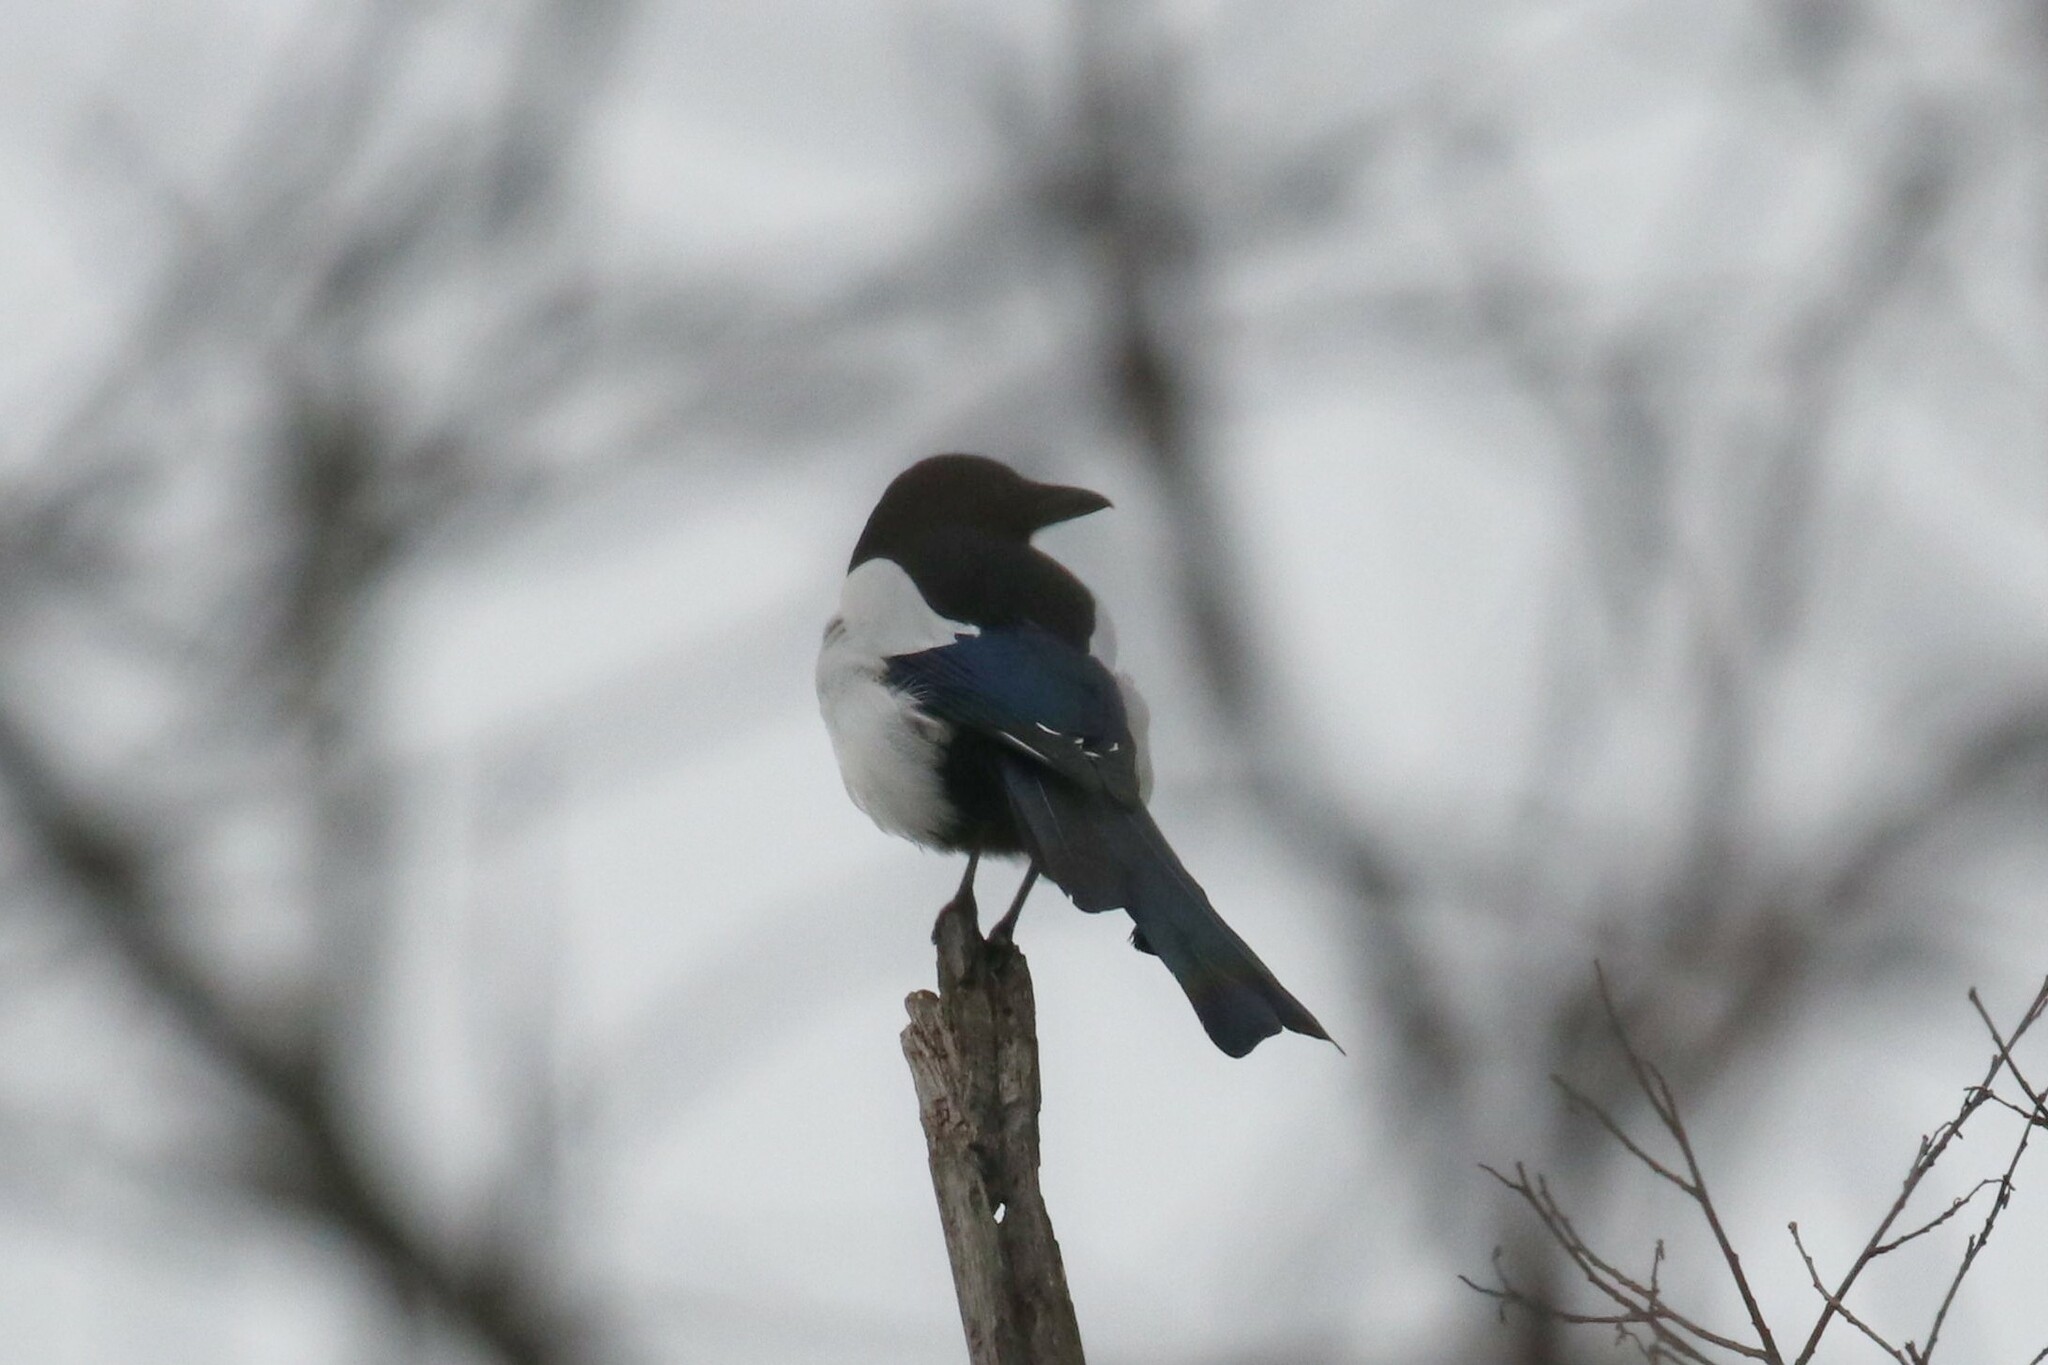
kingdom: Animalia
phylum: Chordata
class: Aves
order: Passeriformes
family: Corvidae
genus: Pica
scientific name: Pica pica
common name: Eurasian magpie
